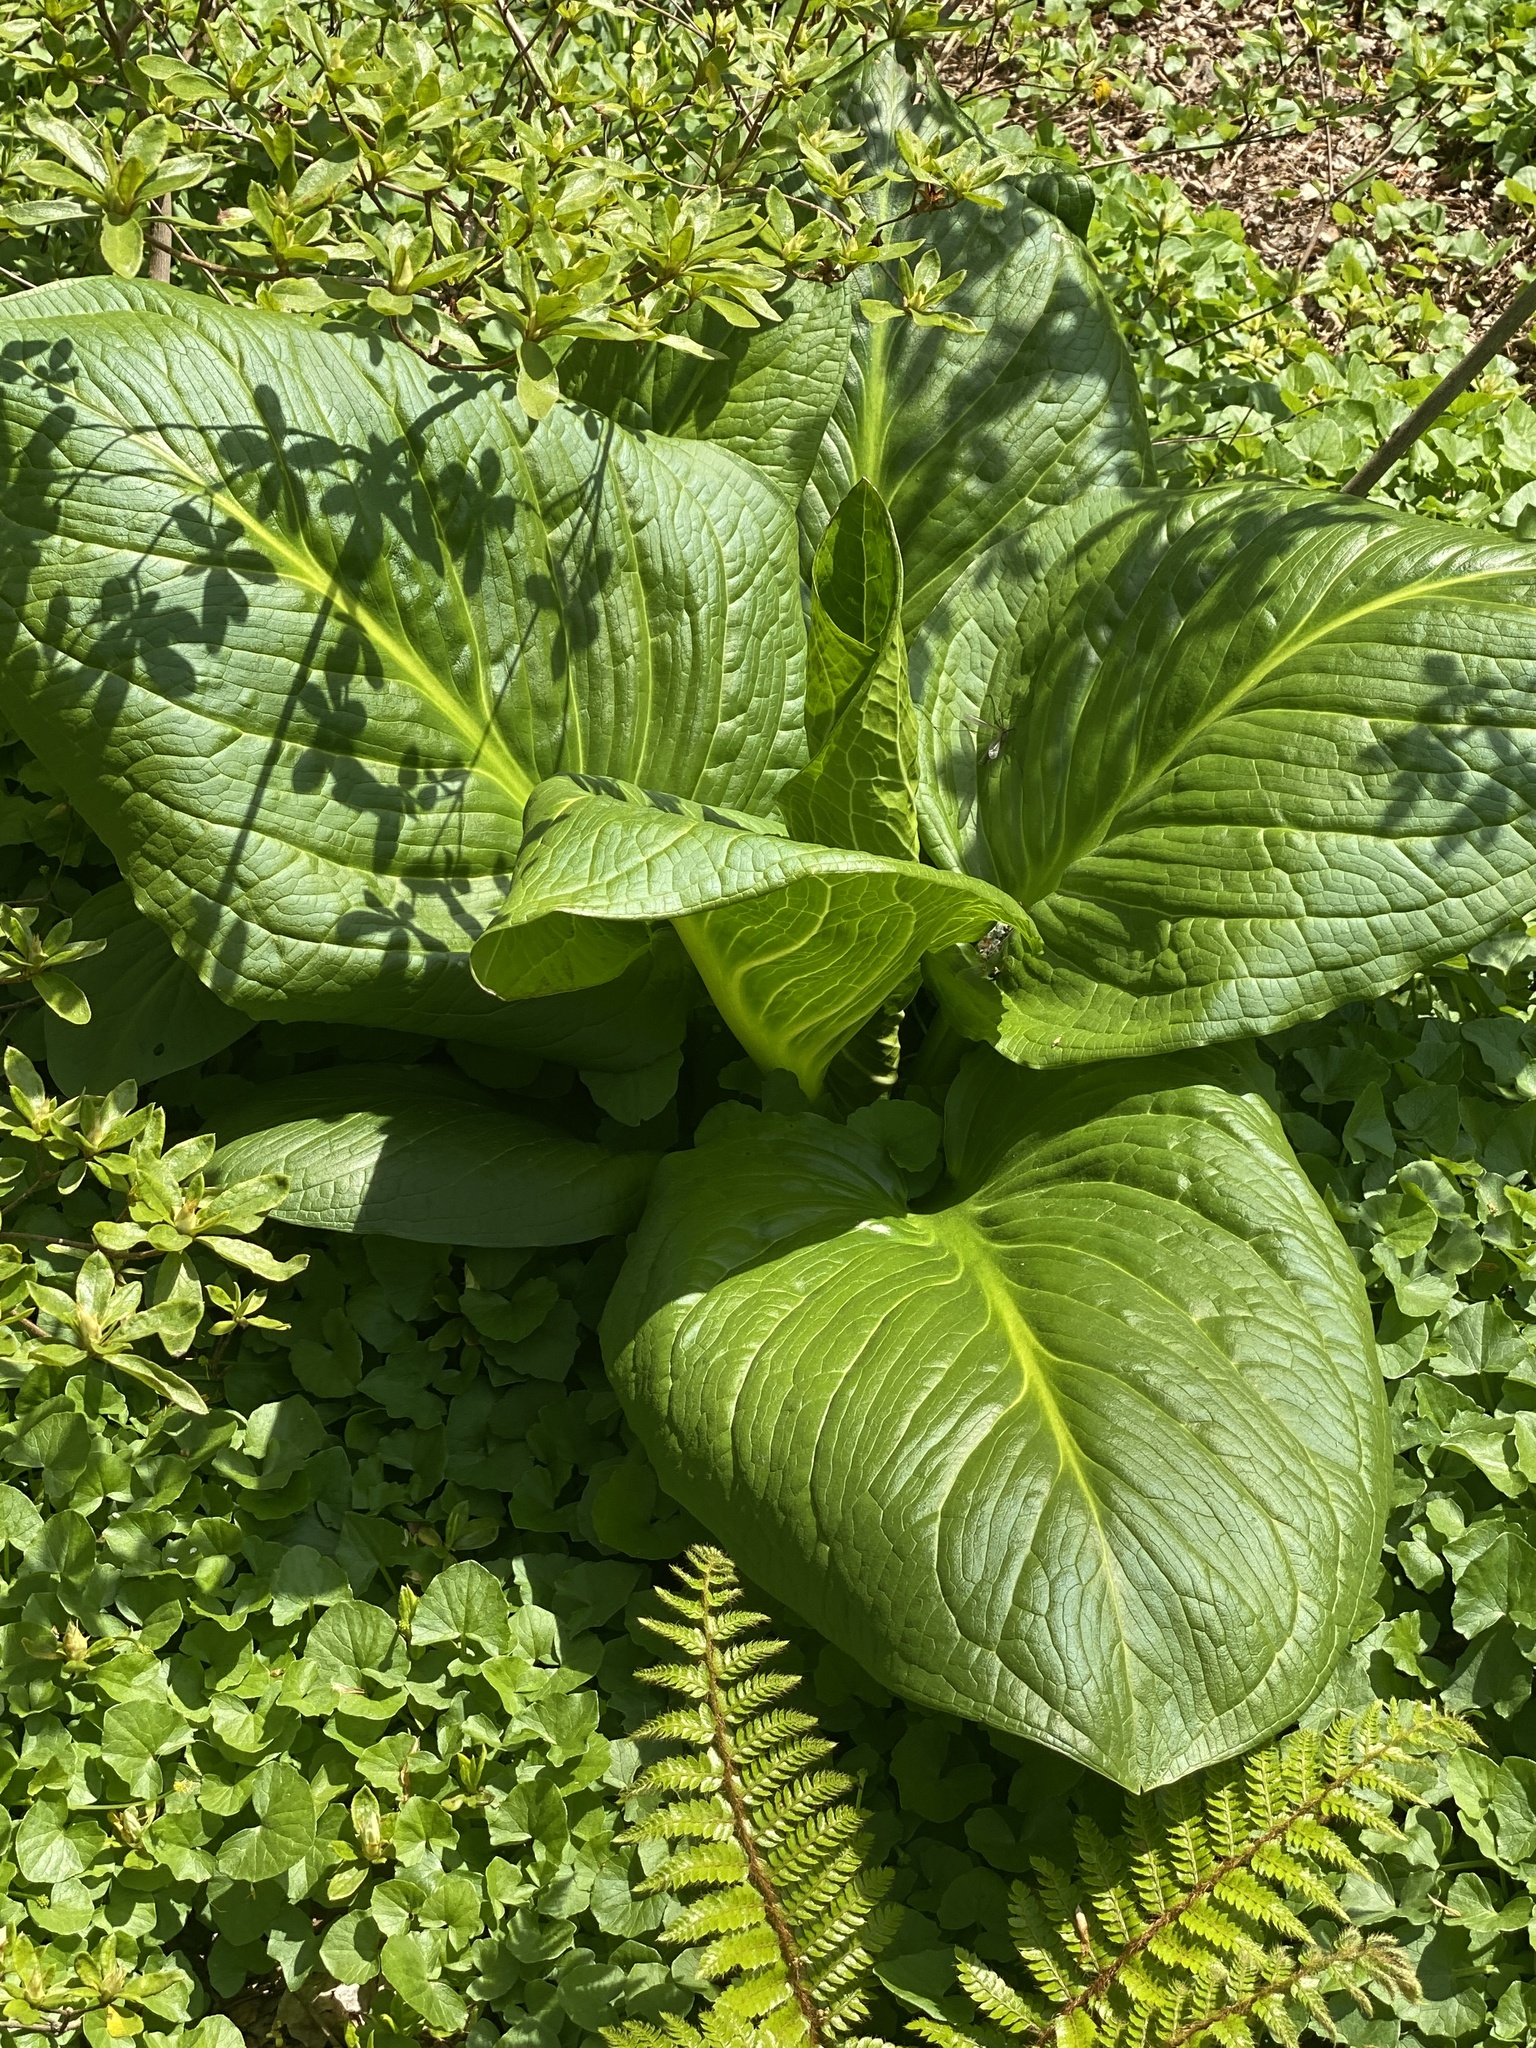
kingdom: Plantae
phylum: Tracheophyta
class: Liliopsida
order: Alismatales
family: Araceae
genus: Symplocarpus
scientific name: Symplocarpus foetidus
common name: Eastern skunk cabbage
